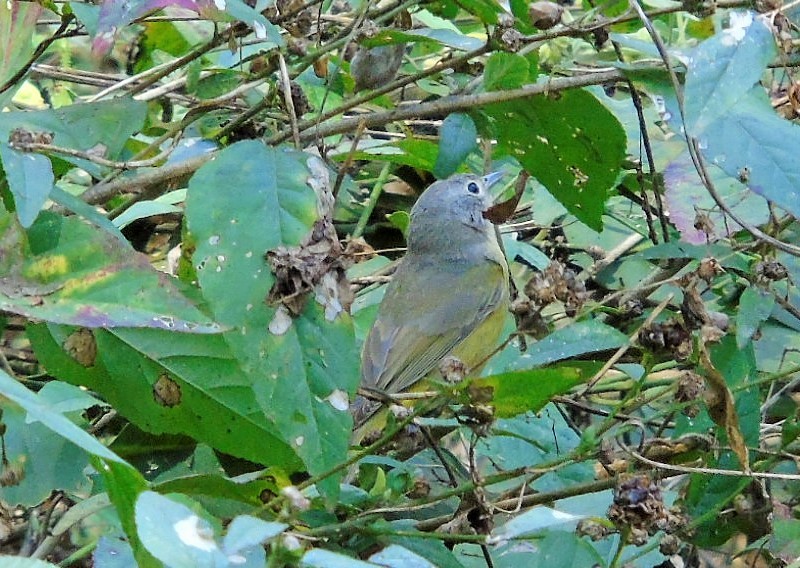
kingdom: Animalia
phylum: Chordata
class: Aves
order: Passeriformes
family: Parulidae
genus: Leiothlypis
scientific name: Leiothlypis ruficapilla
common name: Nashville warbler
